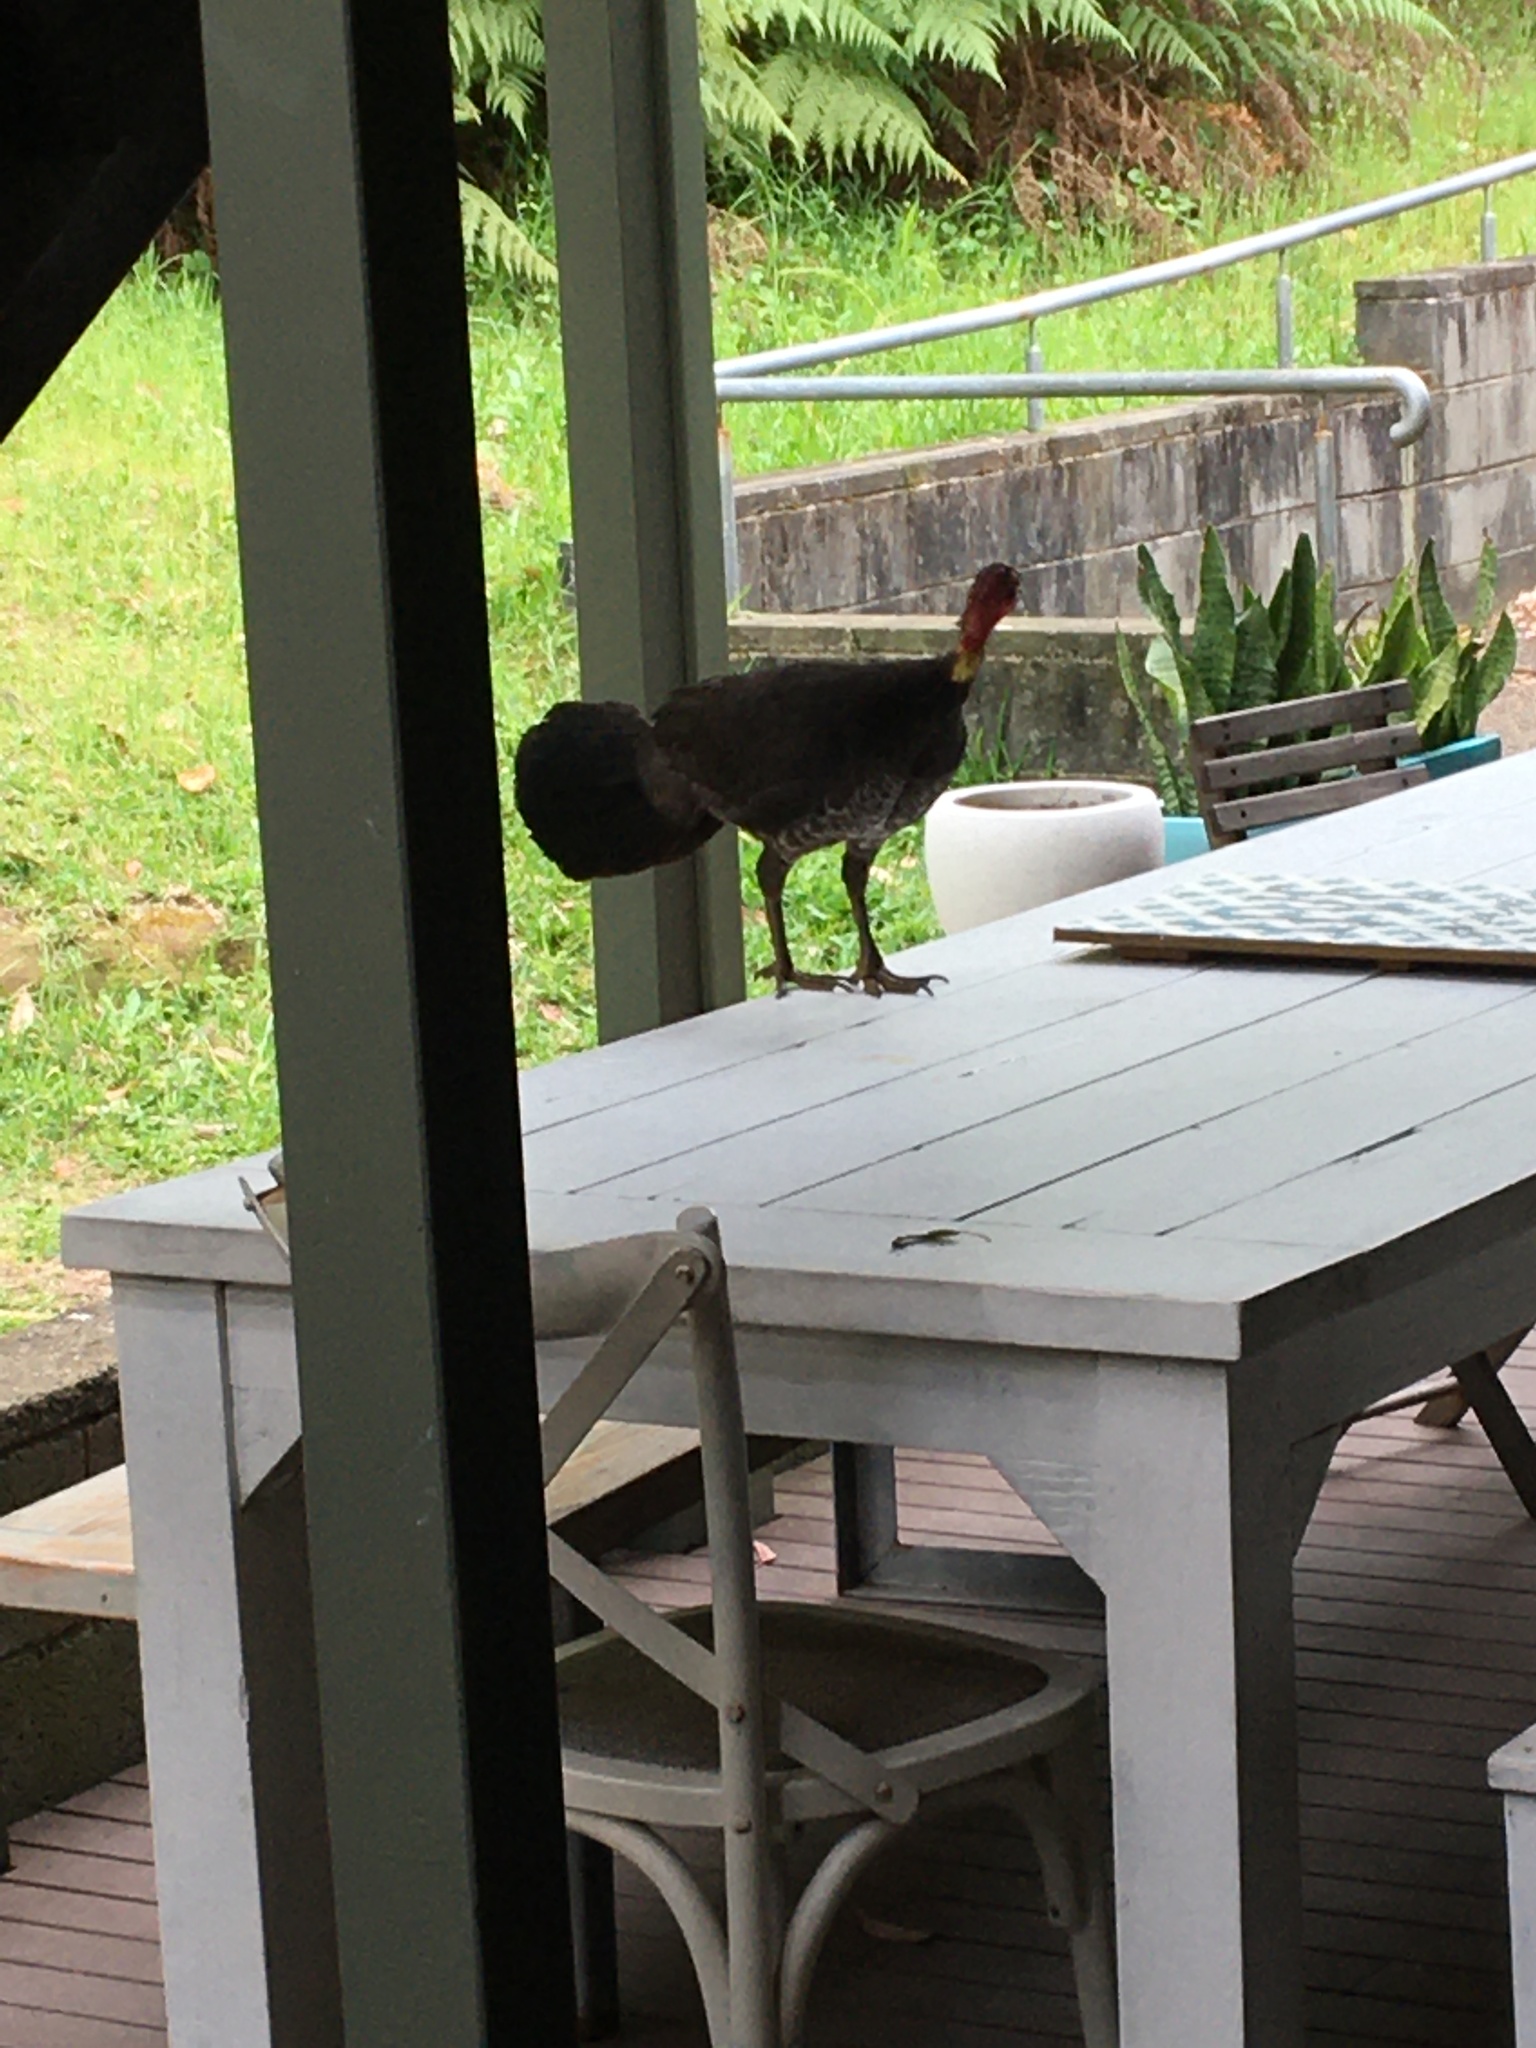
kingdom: Animalia
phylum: Chordata
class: Aves
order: Galliformes
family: Megapodiidae
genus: Alectura
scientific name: Alectura lathami
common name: Australian brushturkey
